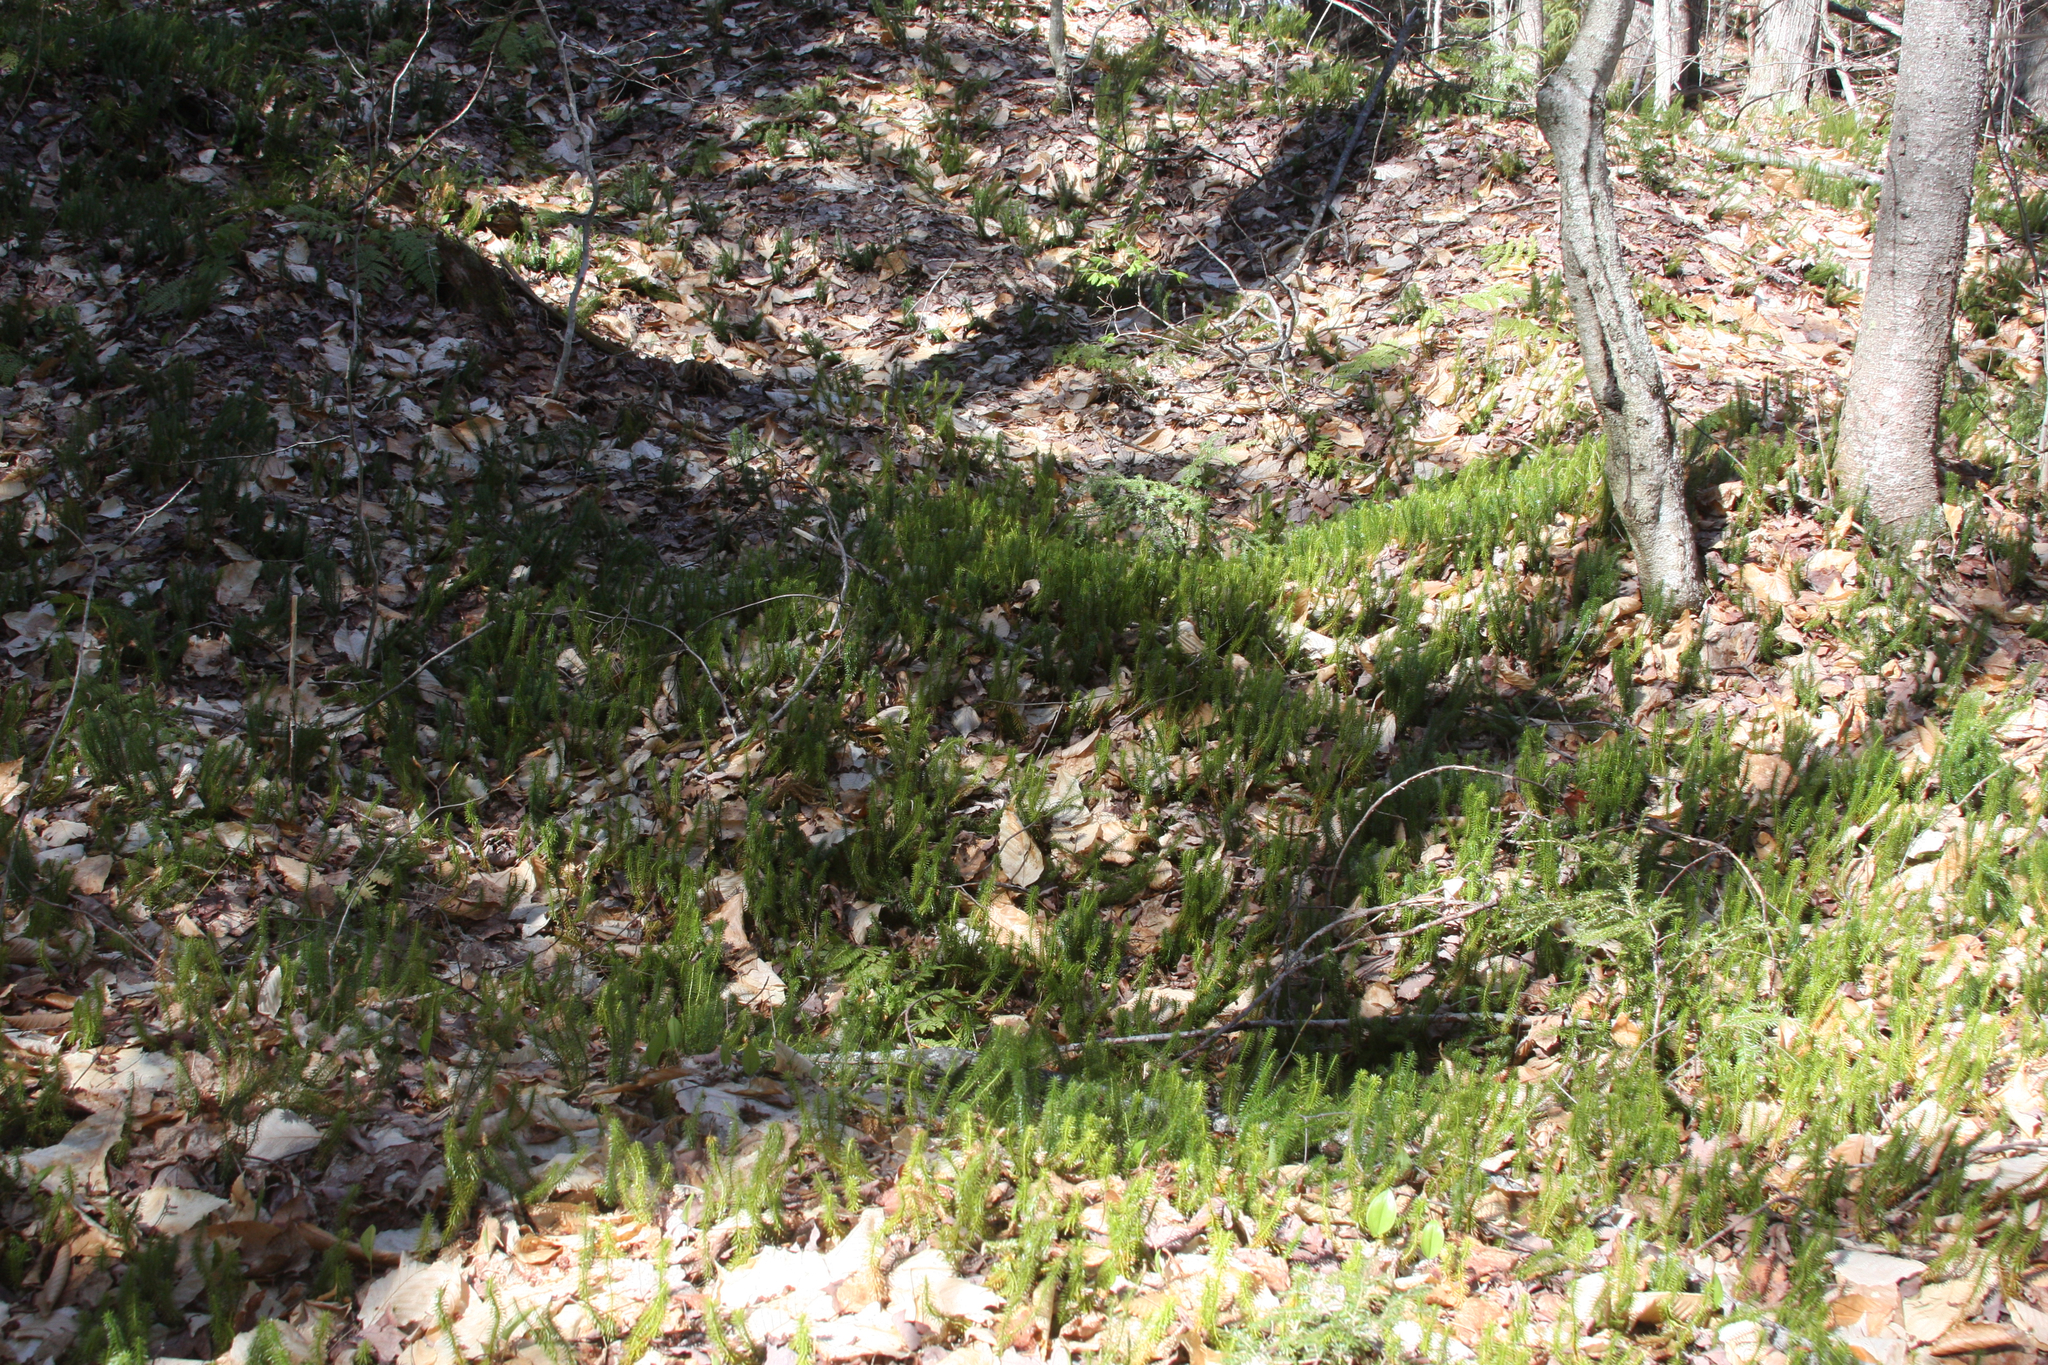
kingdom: Plantae
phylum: Tracheophyta
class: Lycopodiopsida
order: Lycopodiales
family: Lycopodiaceae
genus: Spinulum
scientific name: Spinulum annotinum
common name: Interrupted club-moss
